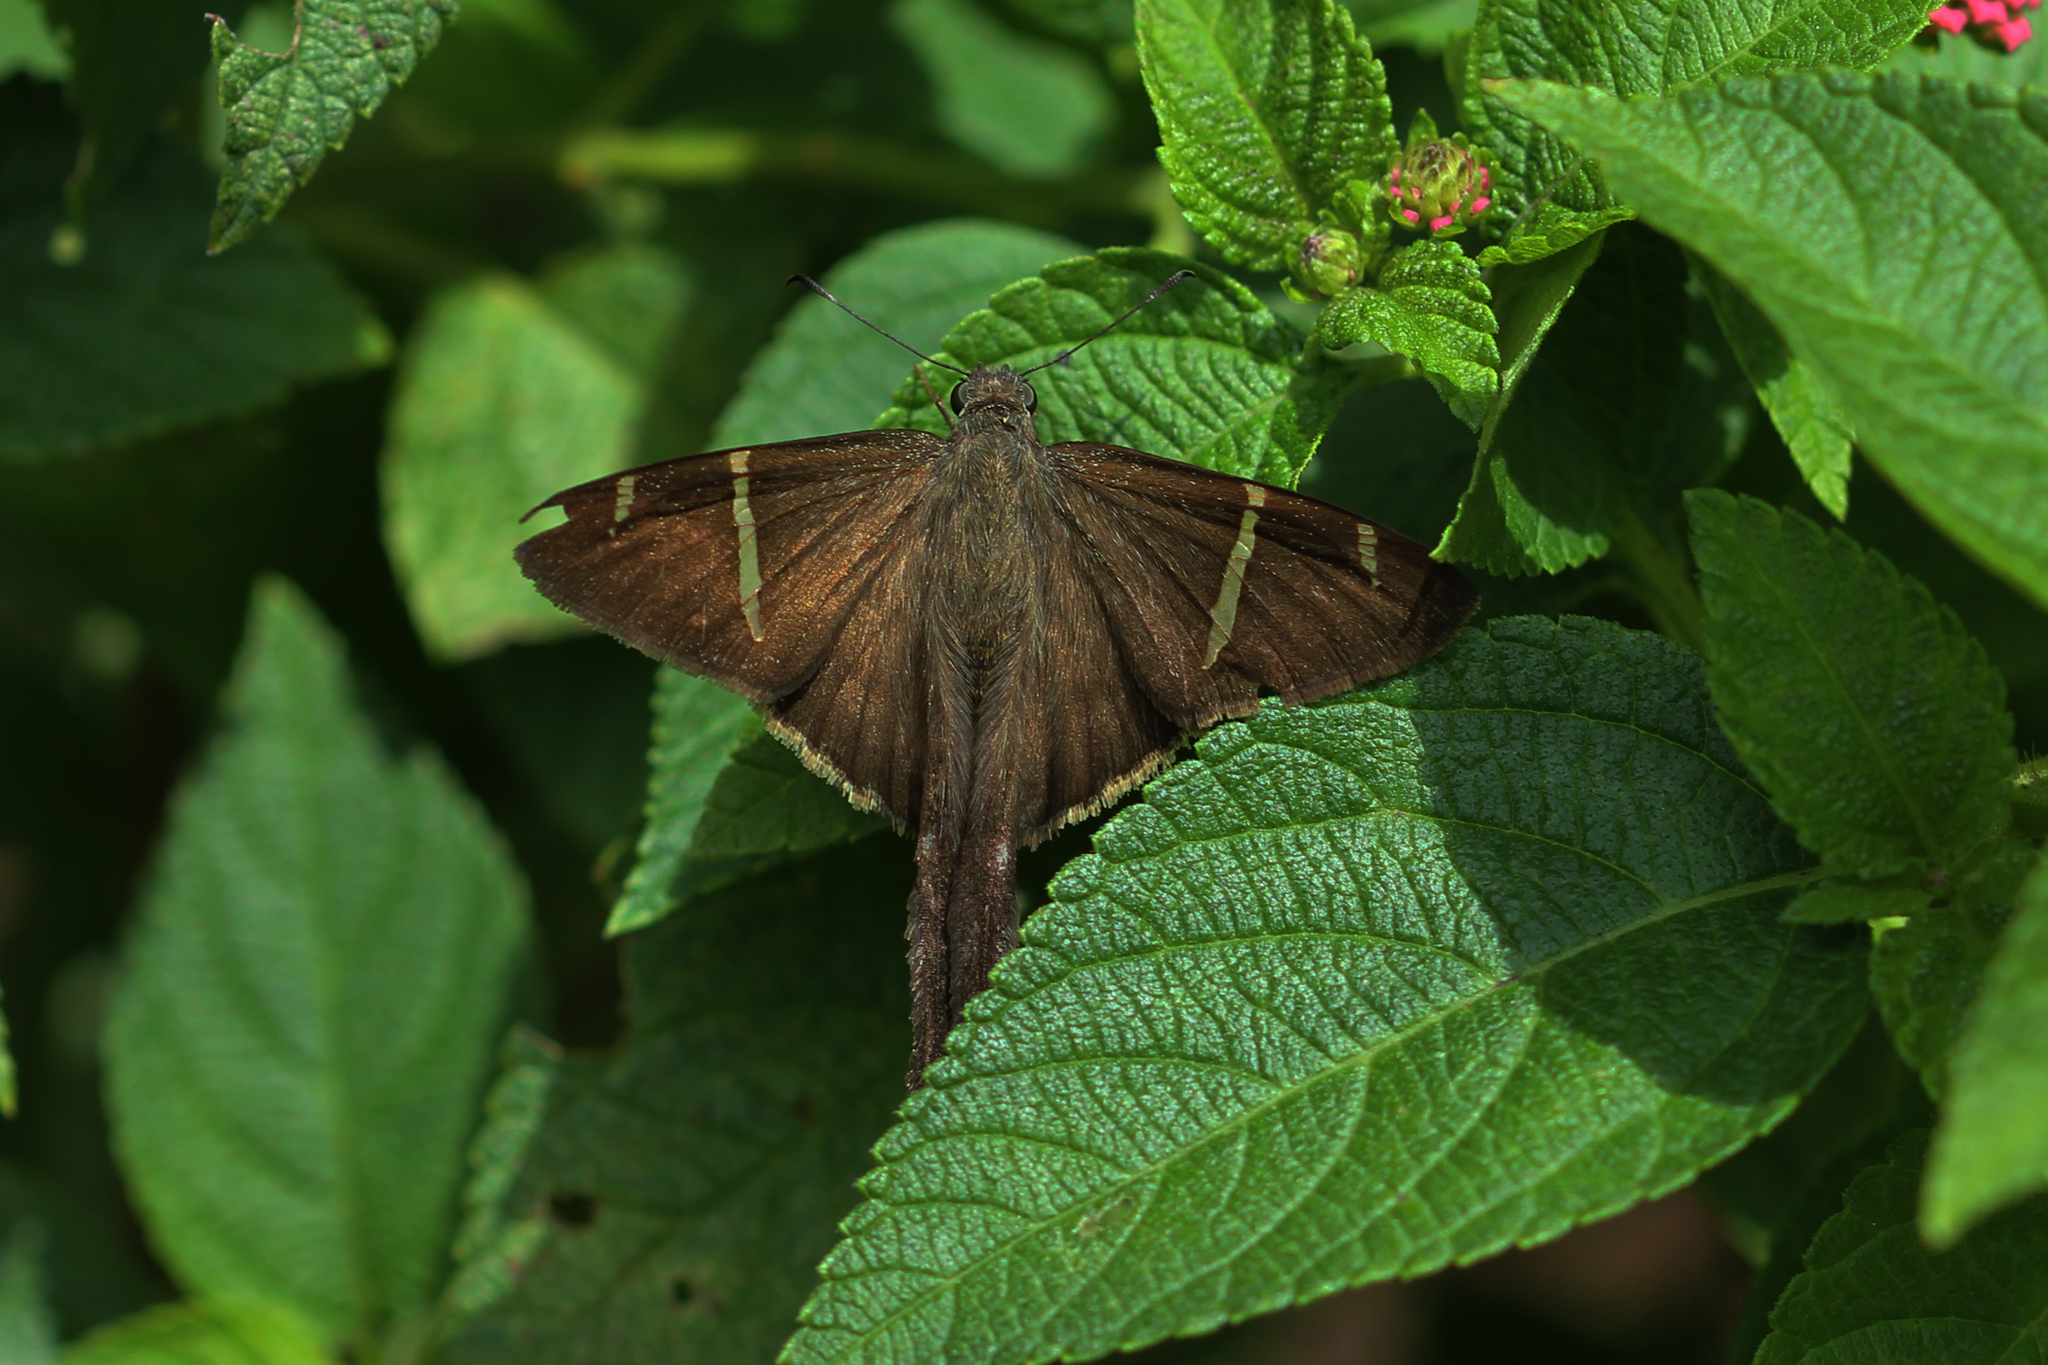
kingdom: Animalia
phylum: Arthropoda
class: Insecta
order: Lepidoptera
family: Hesperiidae
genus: Urbanus
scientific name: Urbanus procne
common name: Brown longtail
